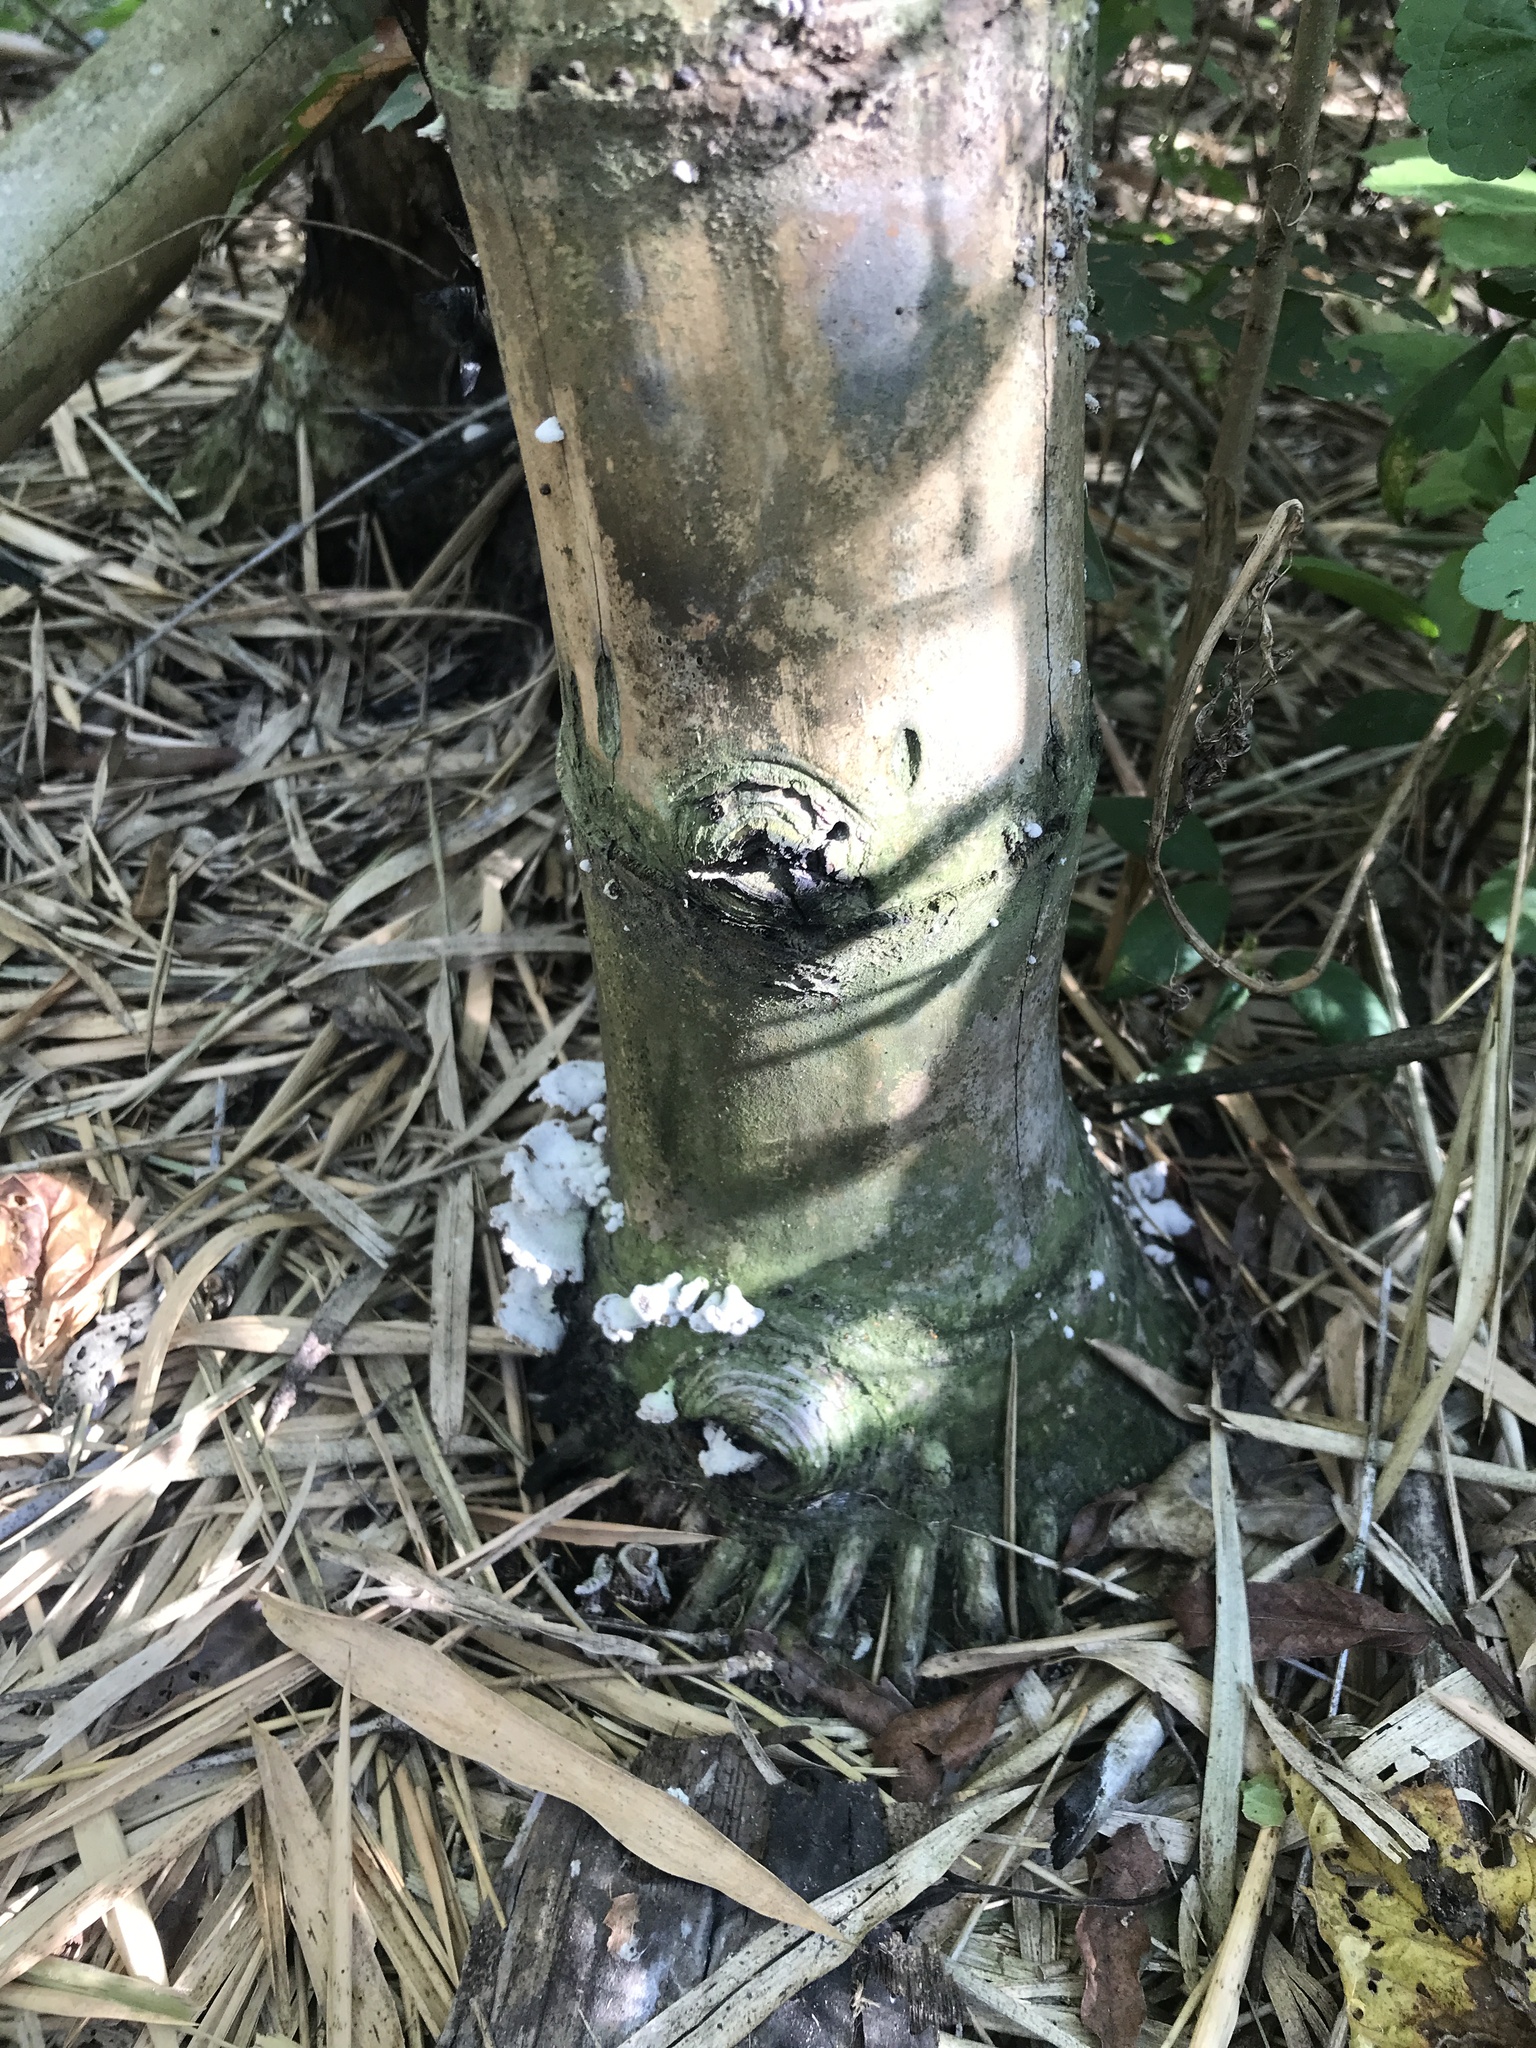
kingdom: Fungi
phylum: Basidiomycota
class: Agaricomycetes
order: Agaricales
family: Schizophyllaceae
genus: Schizophyllum
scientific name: Schizophyllum commune
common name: Common porecrust
